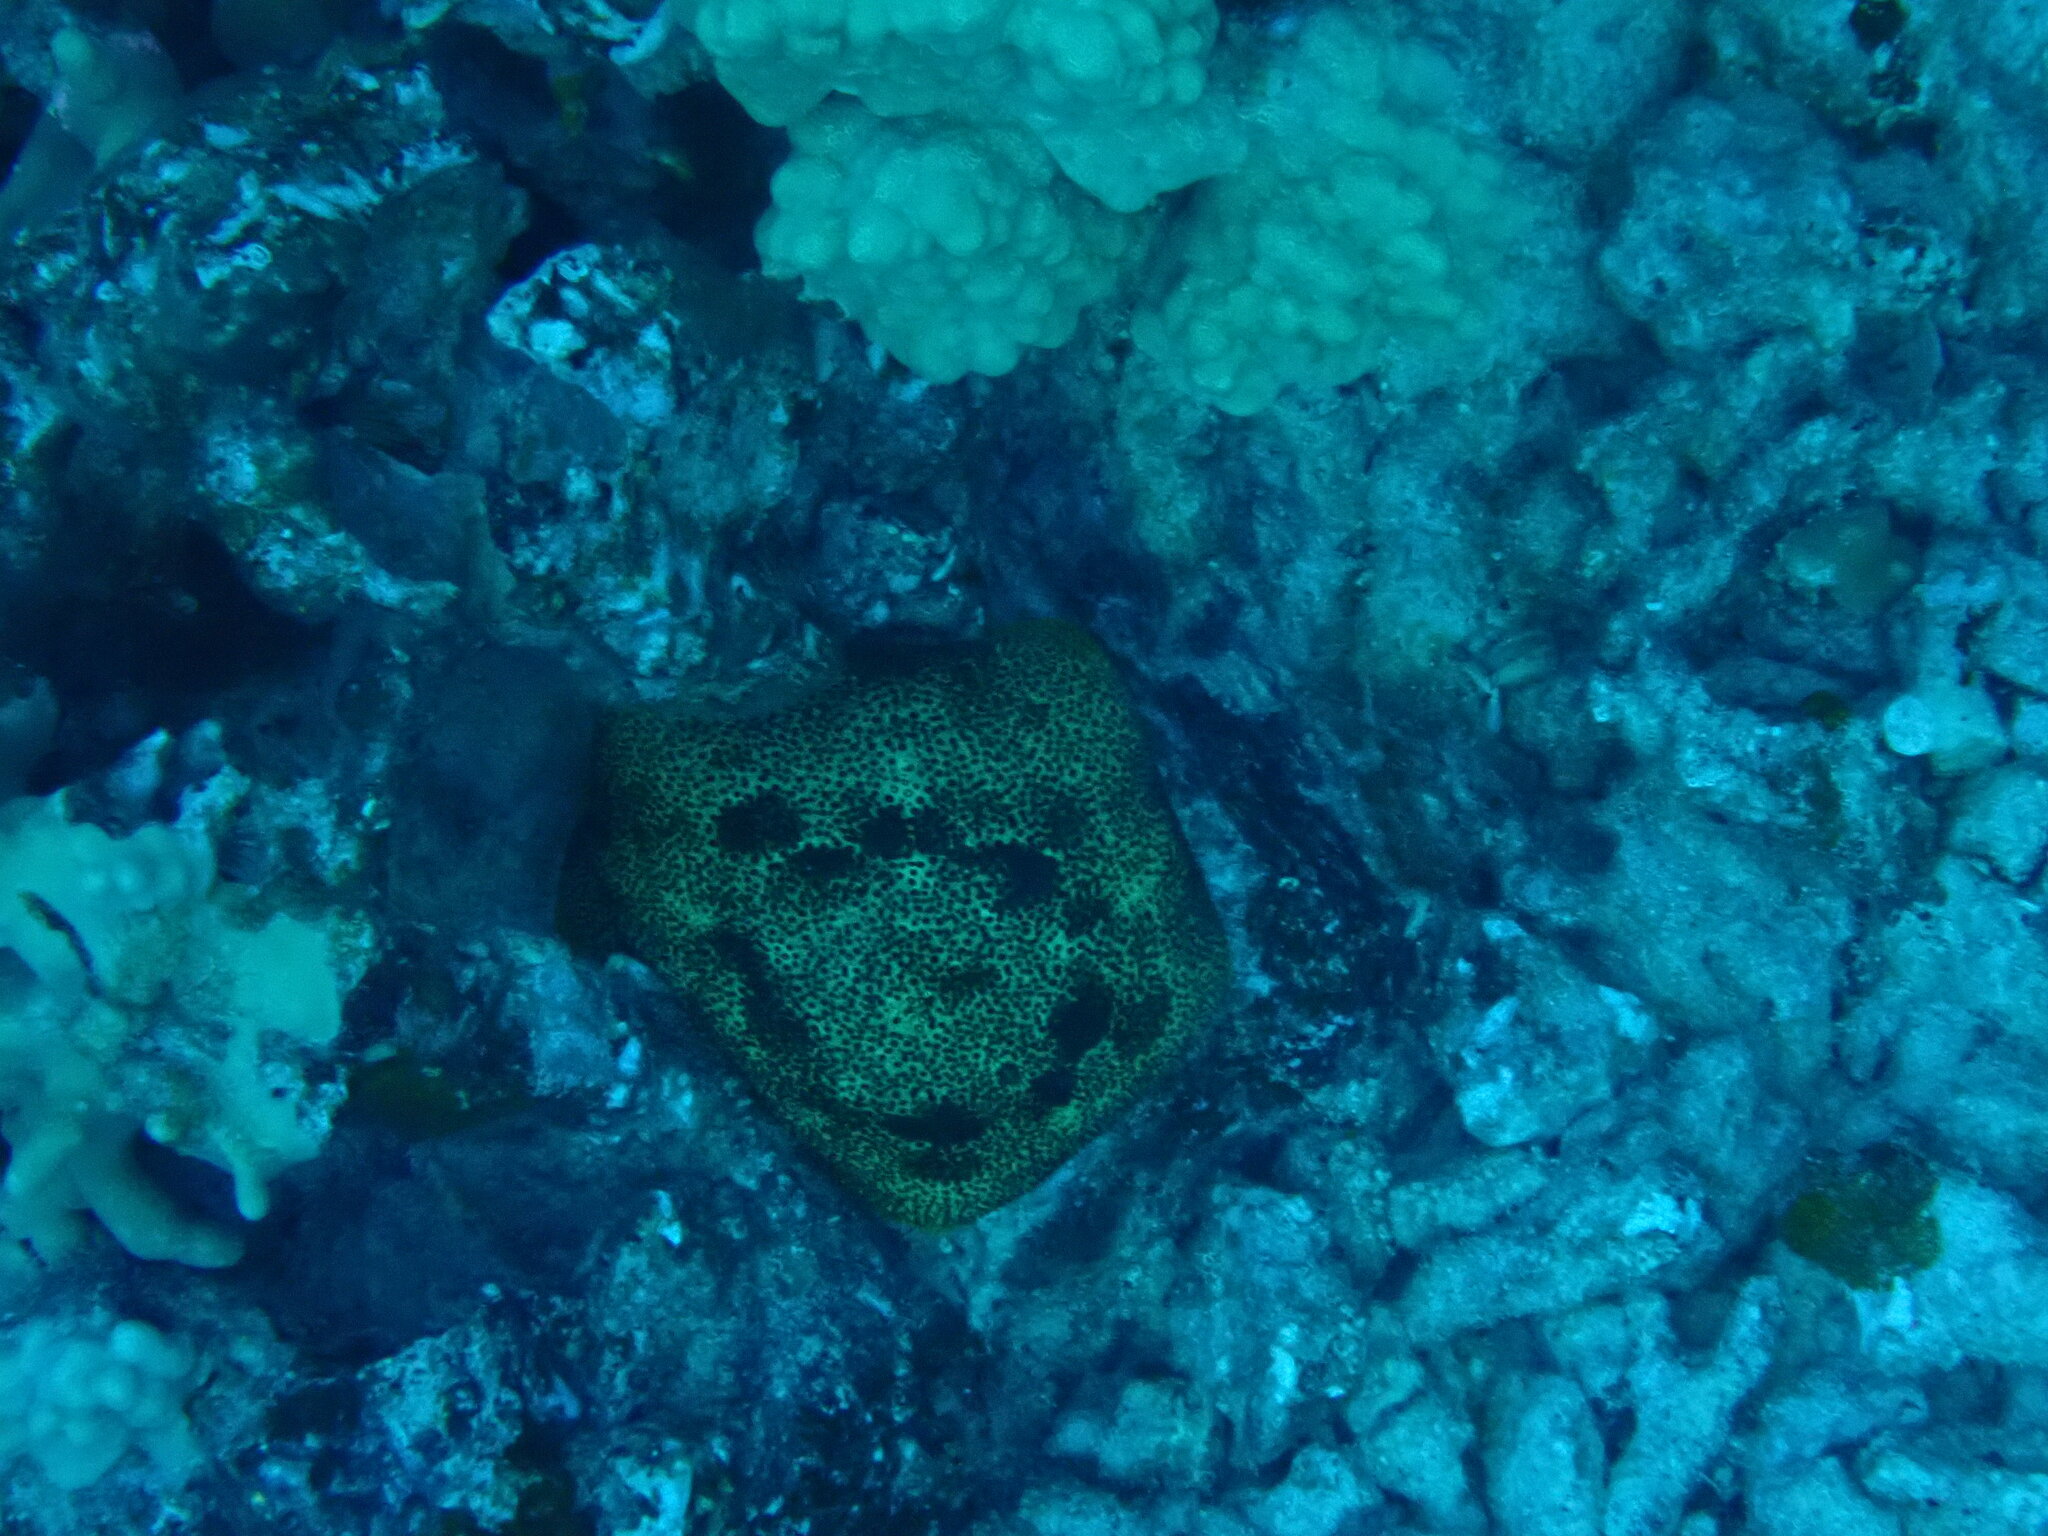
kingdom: Animalia
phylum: Echinodermata
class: Asteroidea
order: Valvatida
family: Oreasteridae
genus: Culcita
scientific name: Culcita novaeguineae
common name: Cushion star
